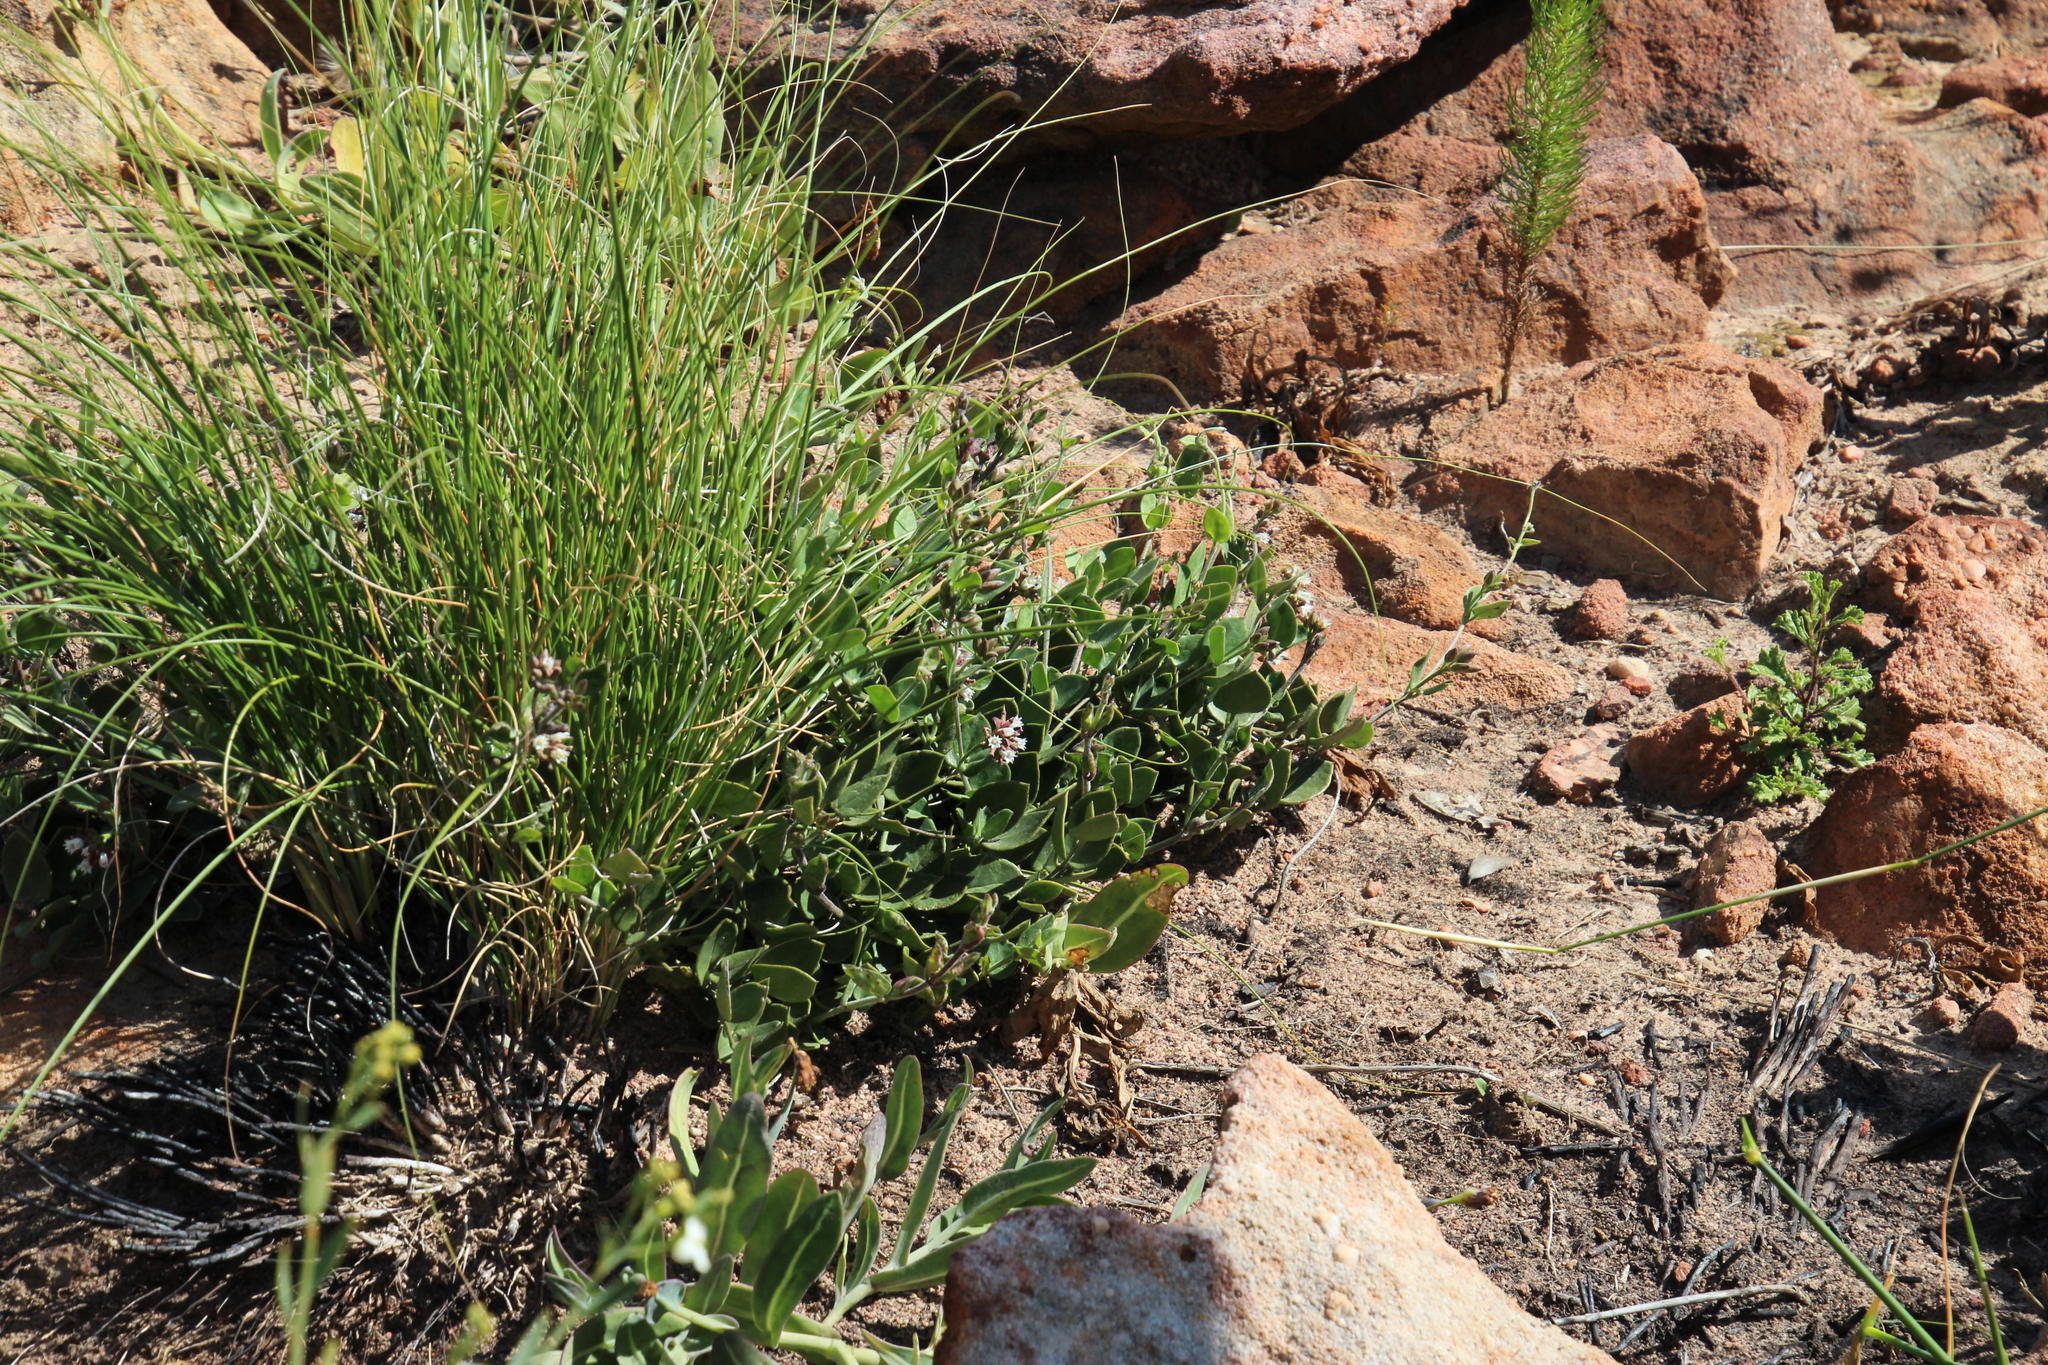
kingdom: Plantae
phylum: Tracheophyta
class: Magnoliopsida
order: Gentianales
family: Apocynaceae
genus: Cynanchum
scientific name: Cynanchum africanum
